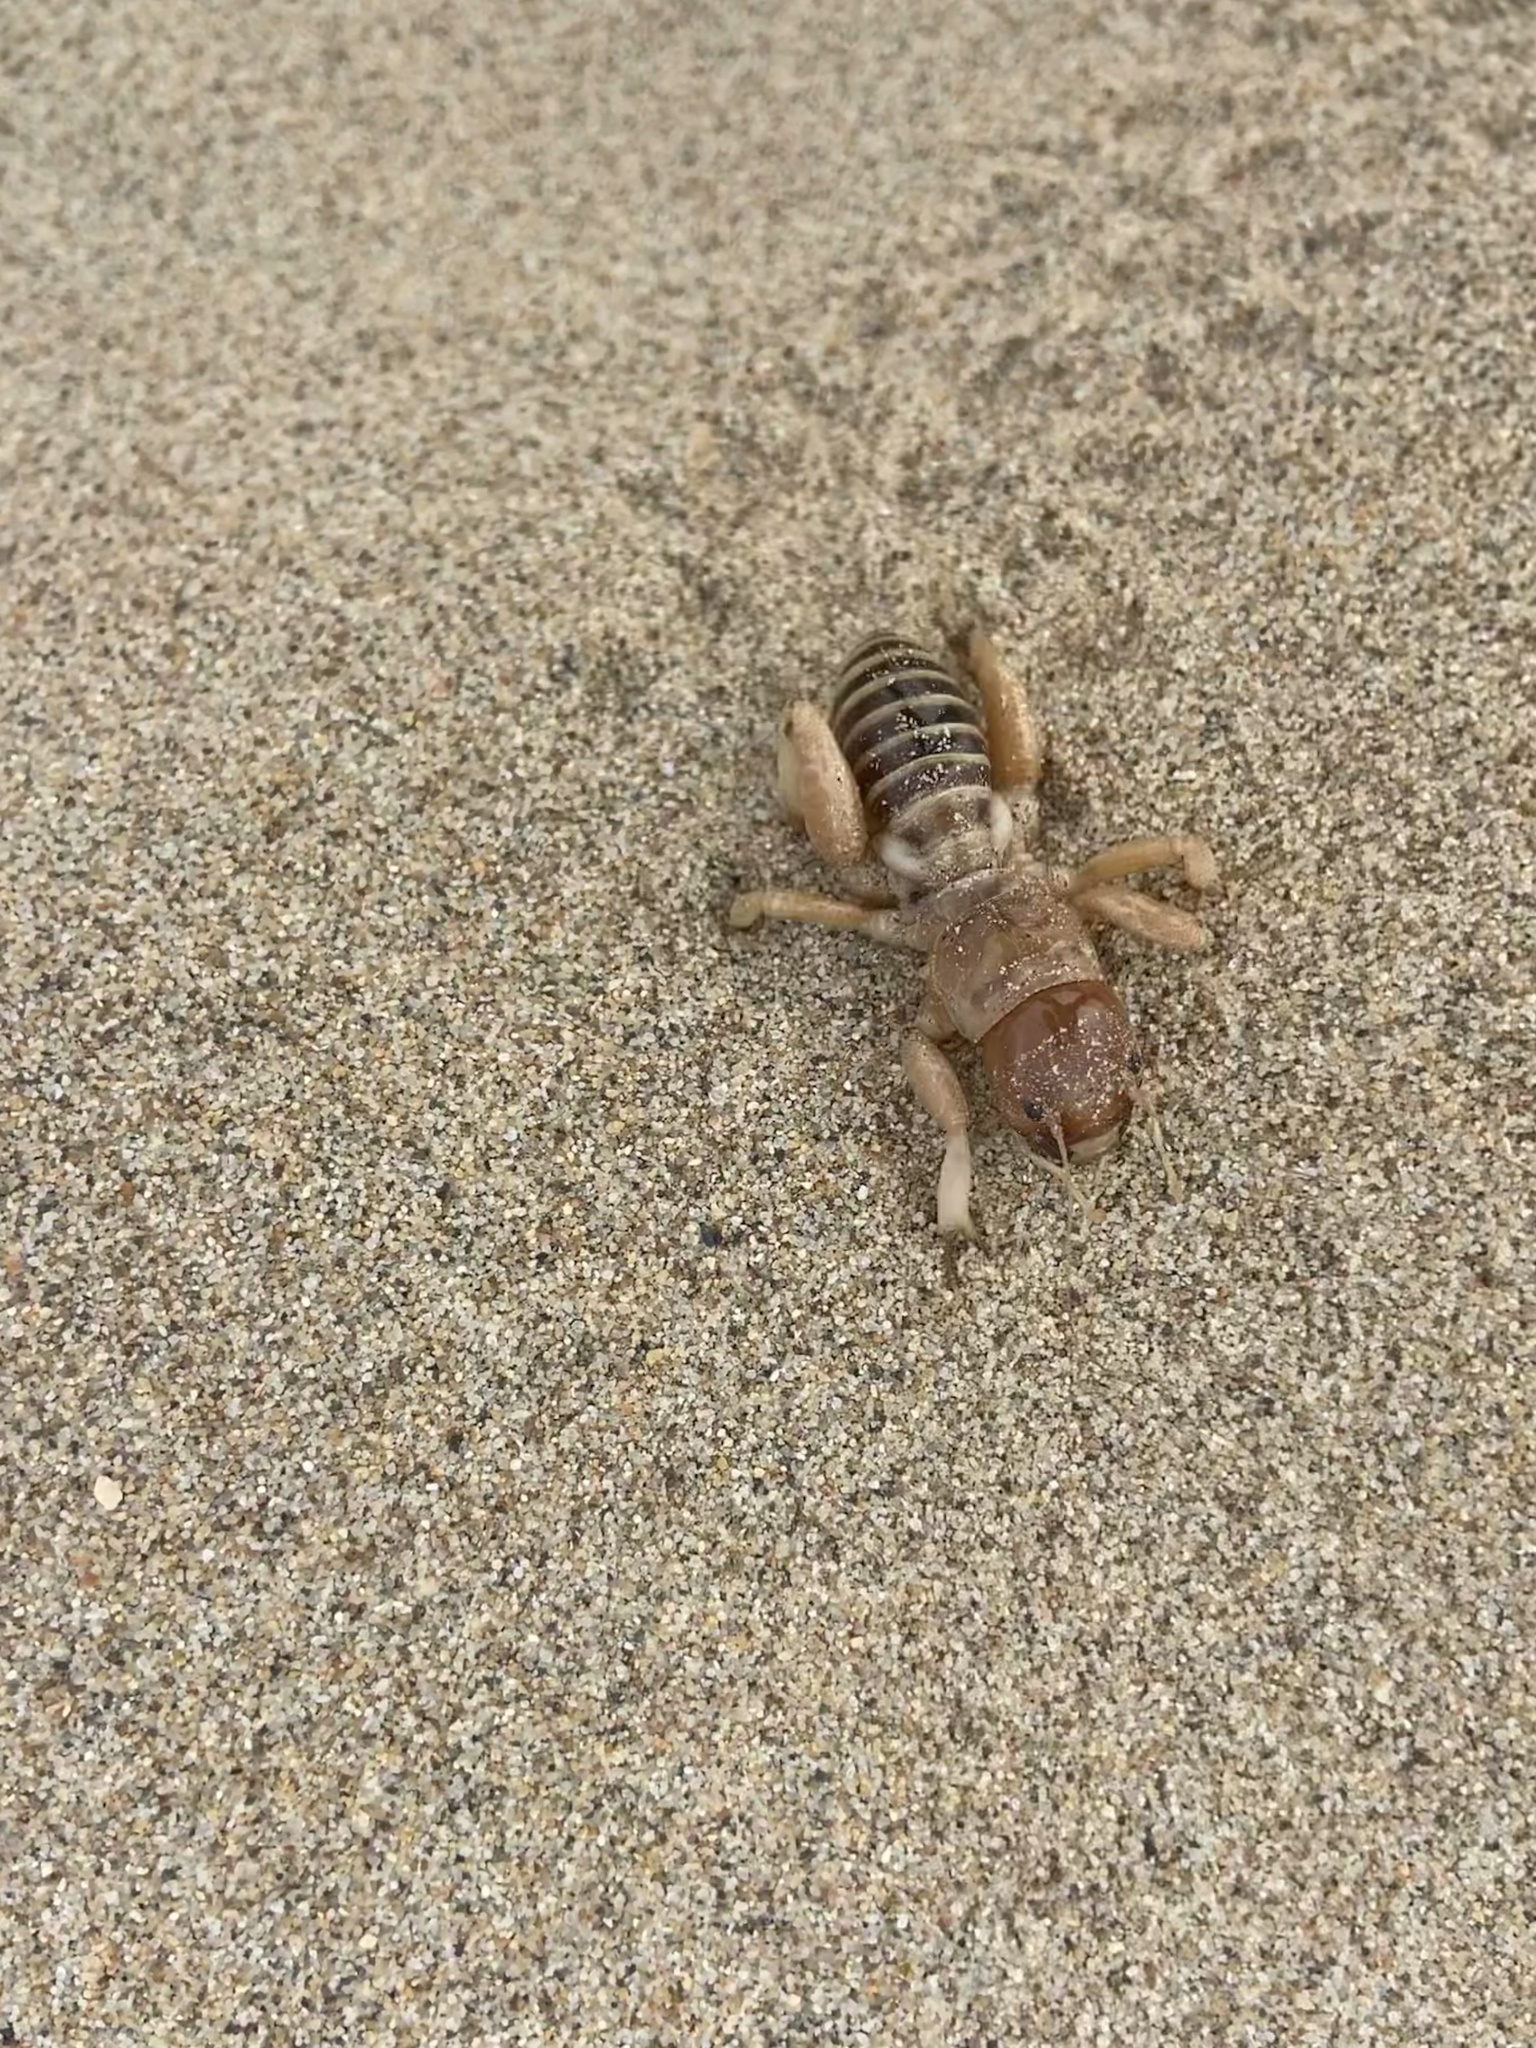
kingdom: Animalia
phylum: Arthropoda
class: Insecta
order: Orthoptera
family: Stenopelmatidae
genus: Ammopelmatus
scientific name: Ammopelmatus muwu
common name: Port conception jerusalem cricket
